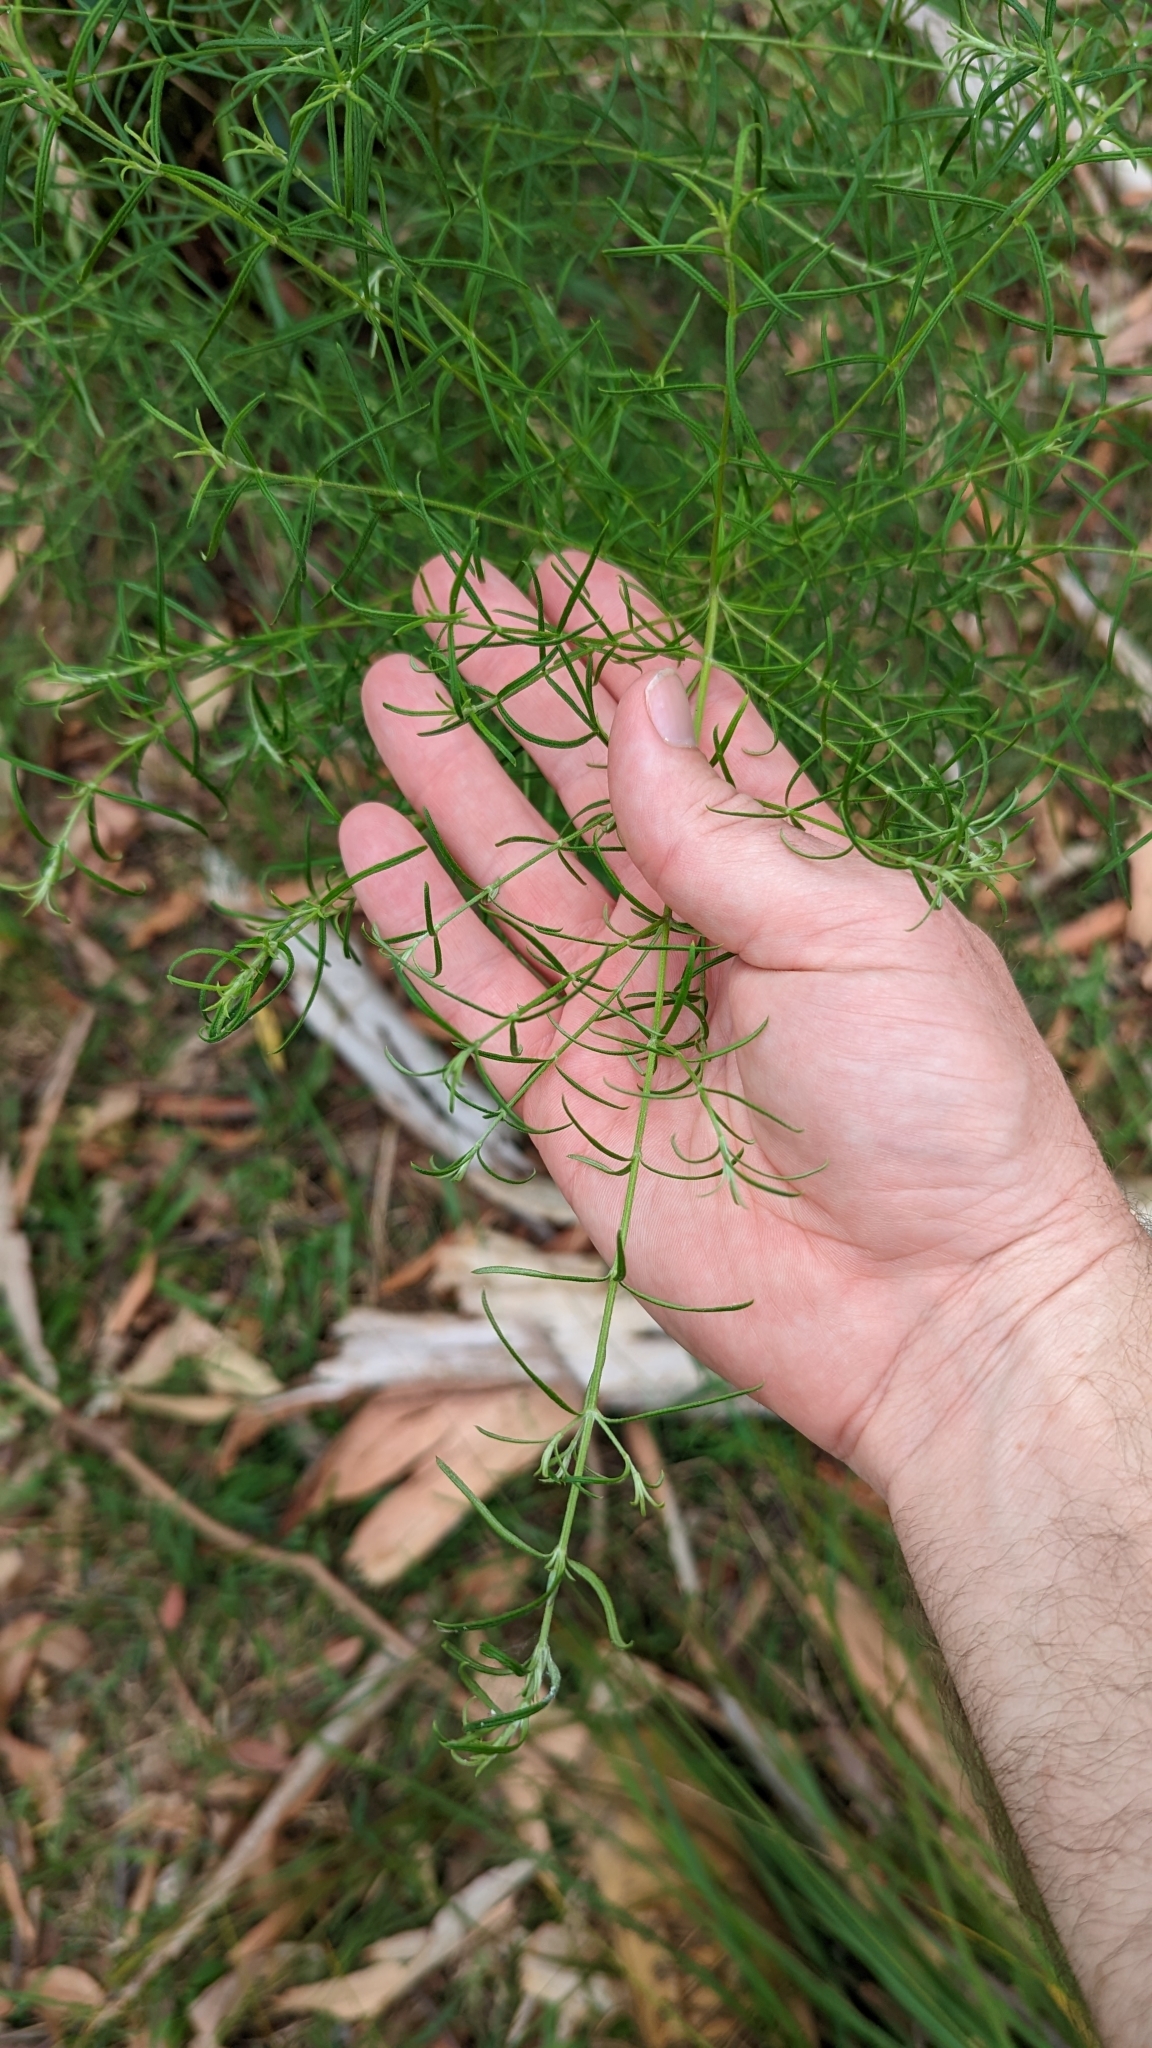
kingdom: Plantae
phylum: Tracheophyta
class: Magnoliopsida
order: Lamiales
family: Lamiaceae
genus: Westringia
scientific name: Westringia eremicola
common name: Slender western-rosemary
